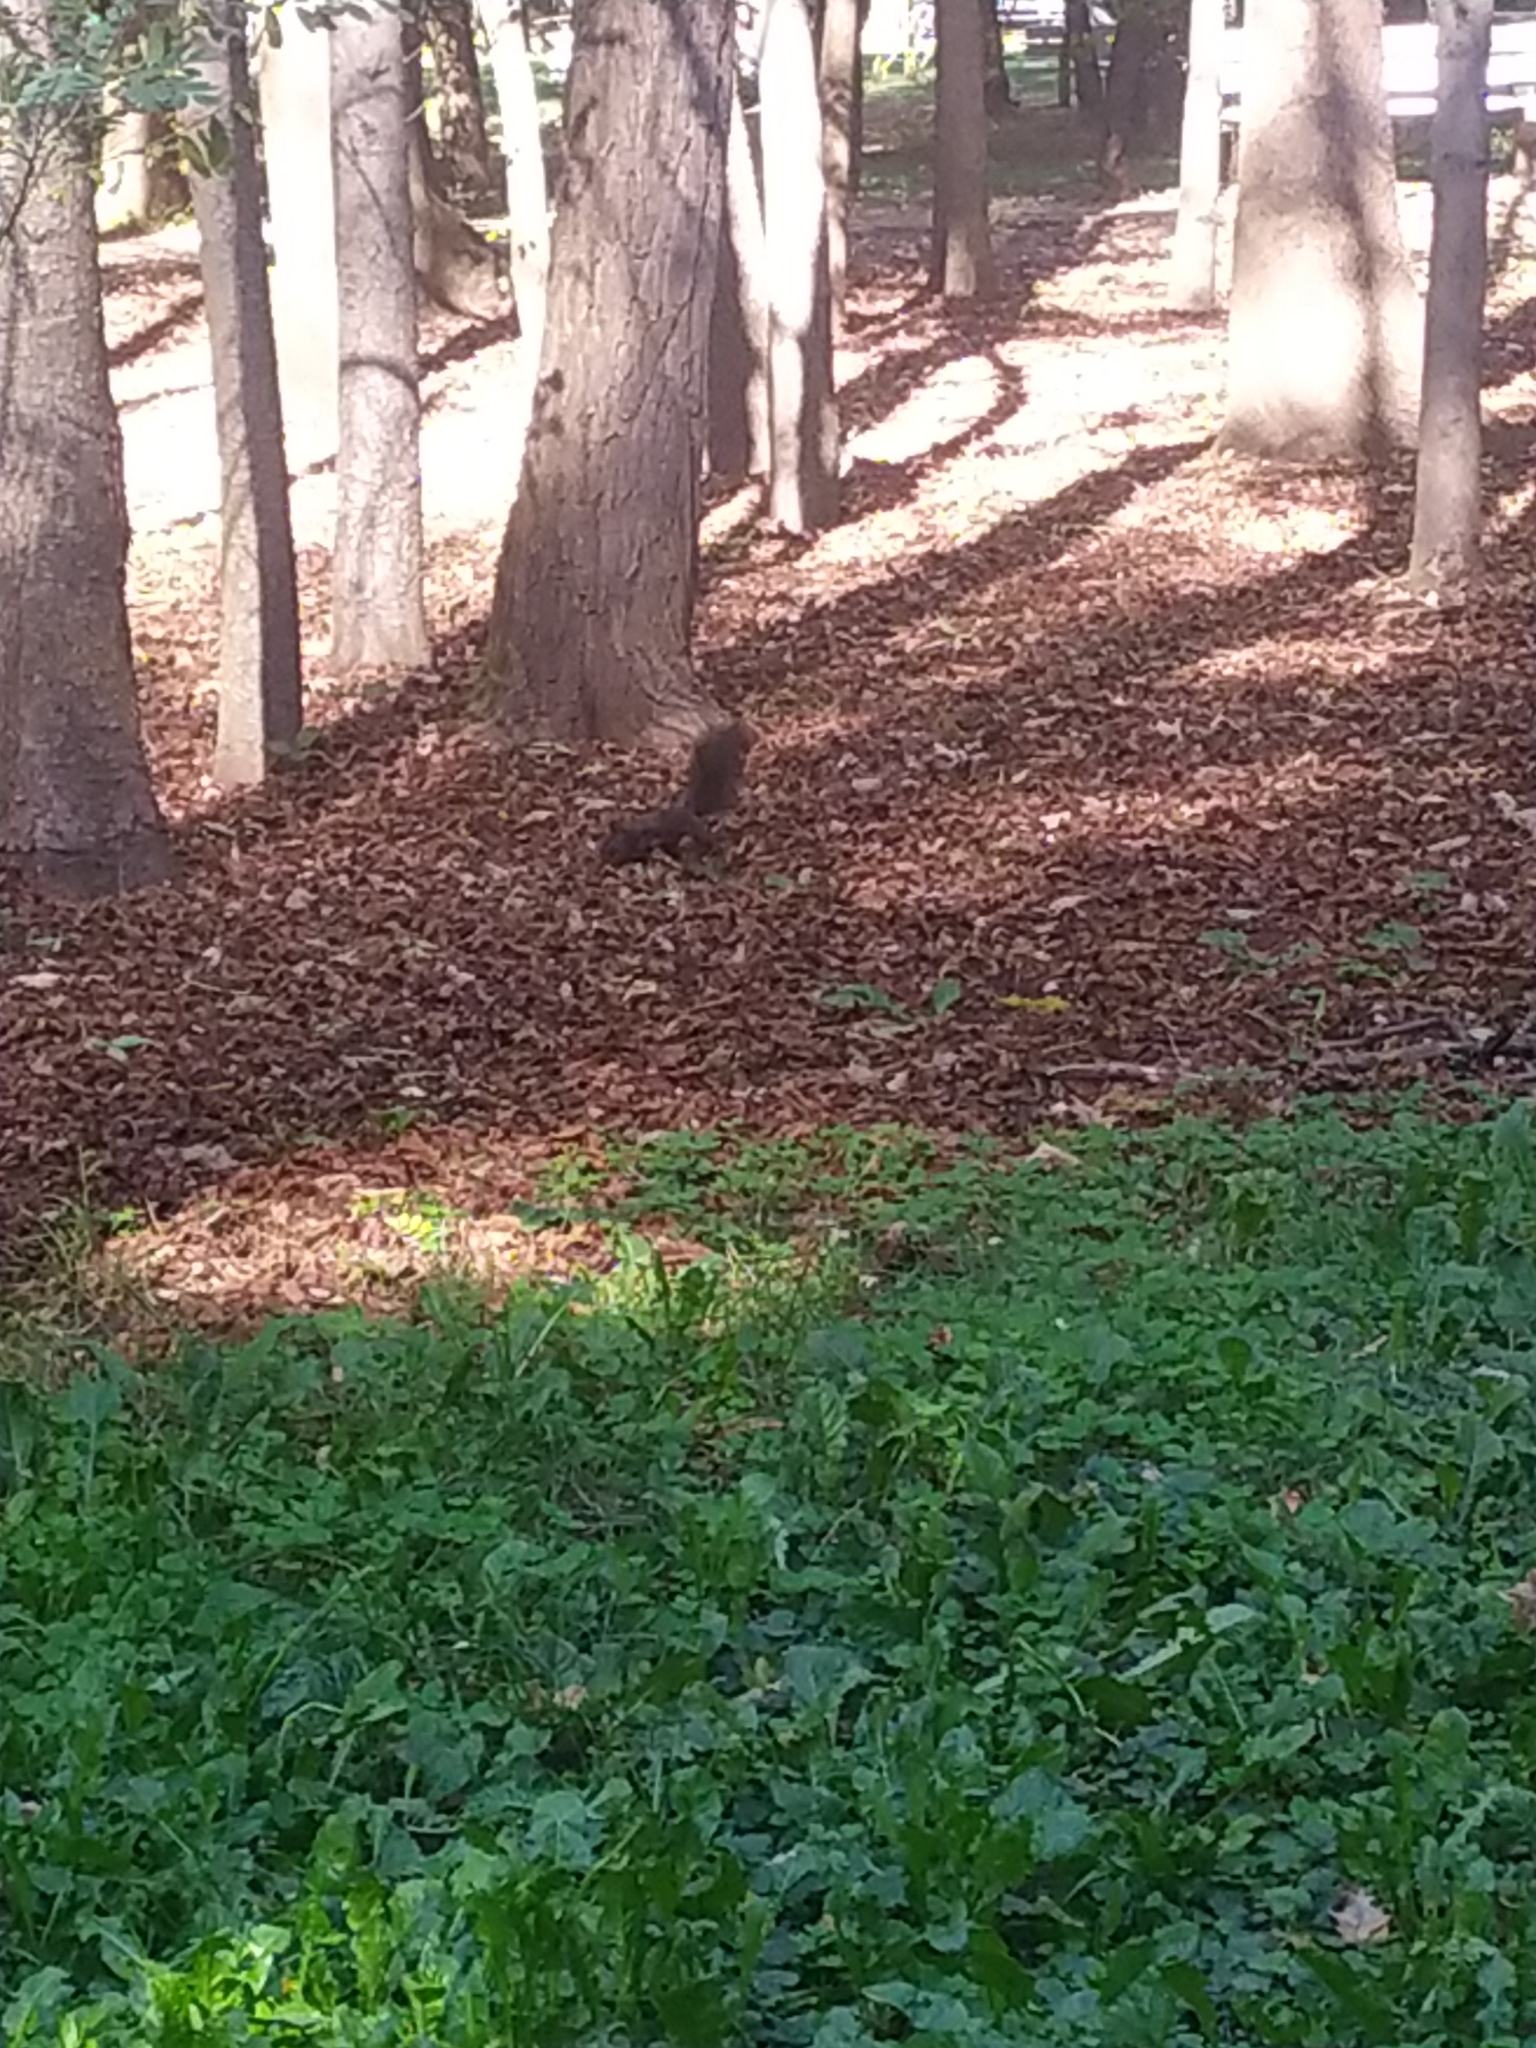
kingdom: Animalia
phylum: Chordata
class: Mammalia
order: Rodentia
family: Sciuridae
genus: Sciurus
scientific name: Sciurus vulgaris
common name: Eurasian red squirrel
